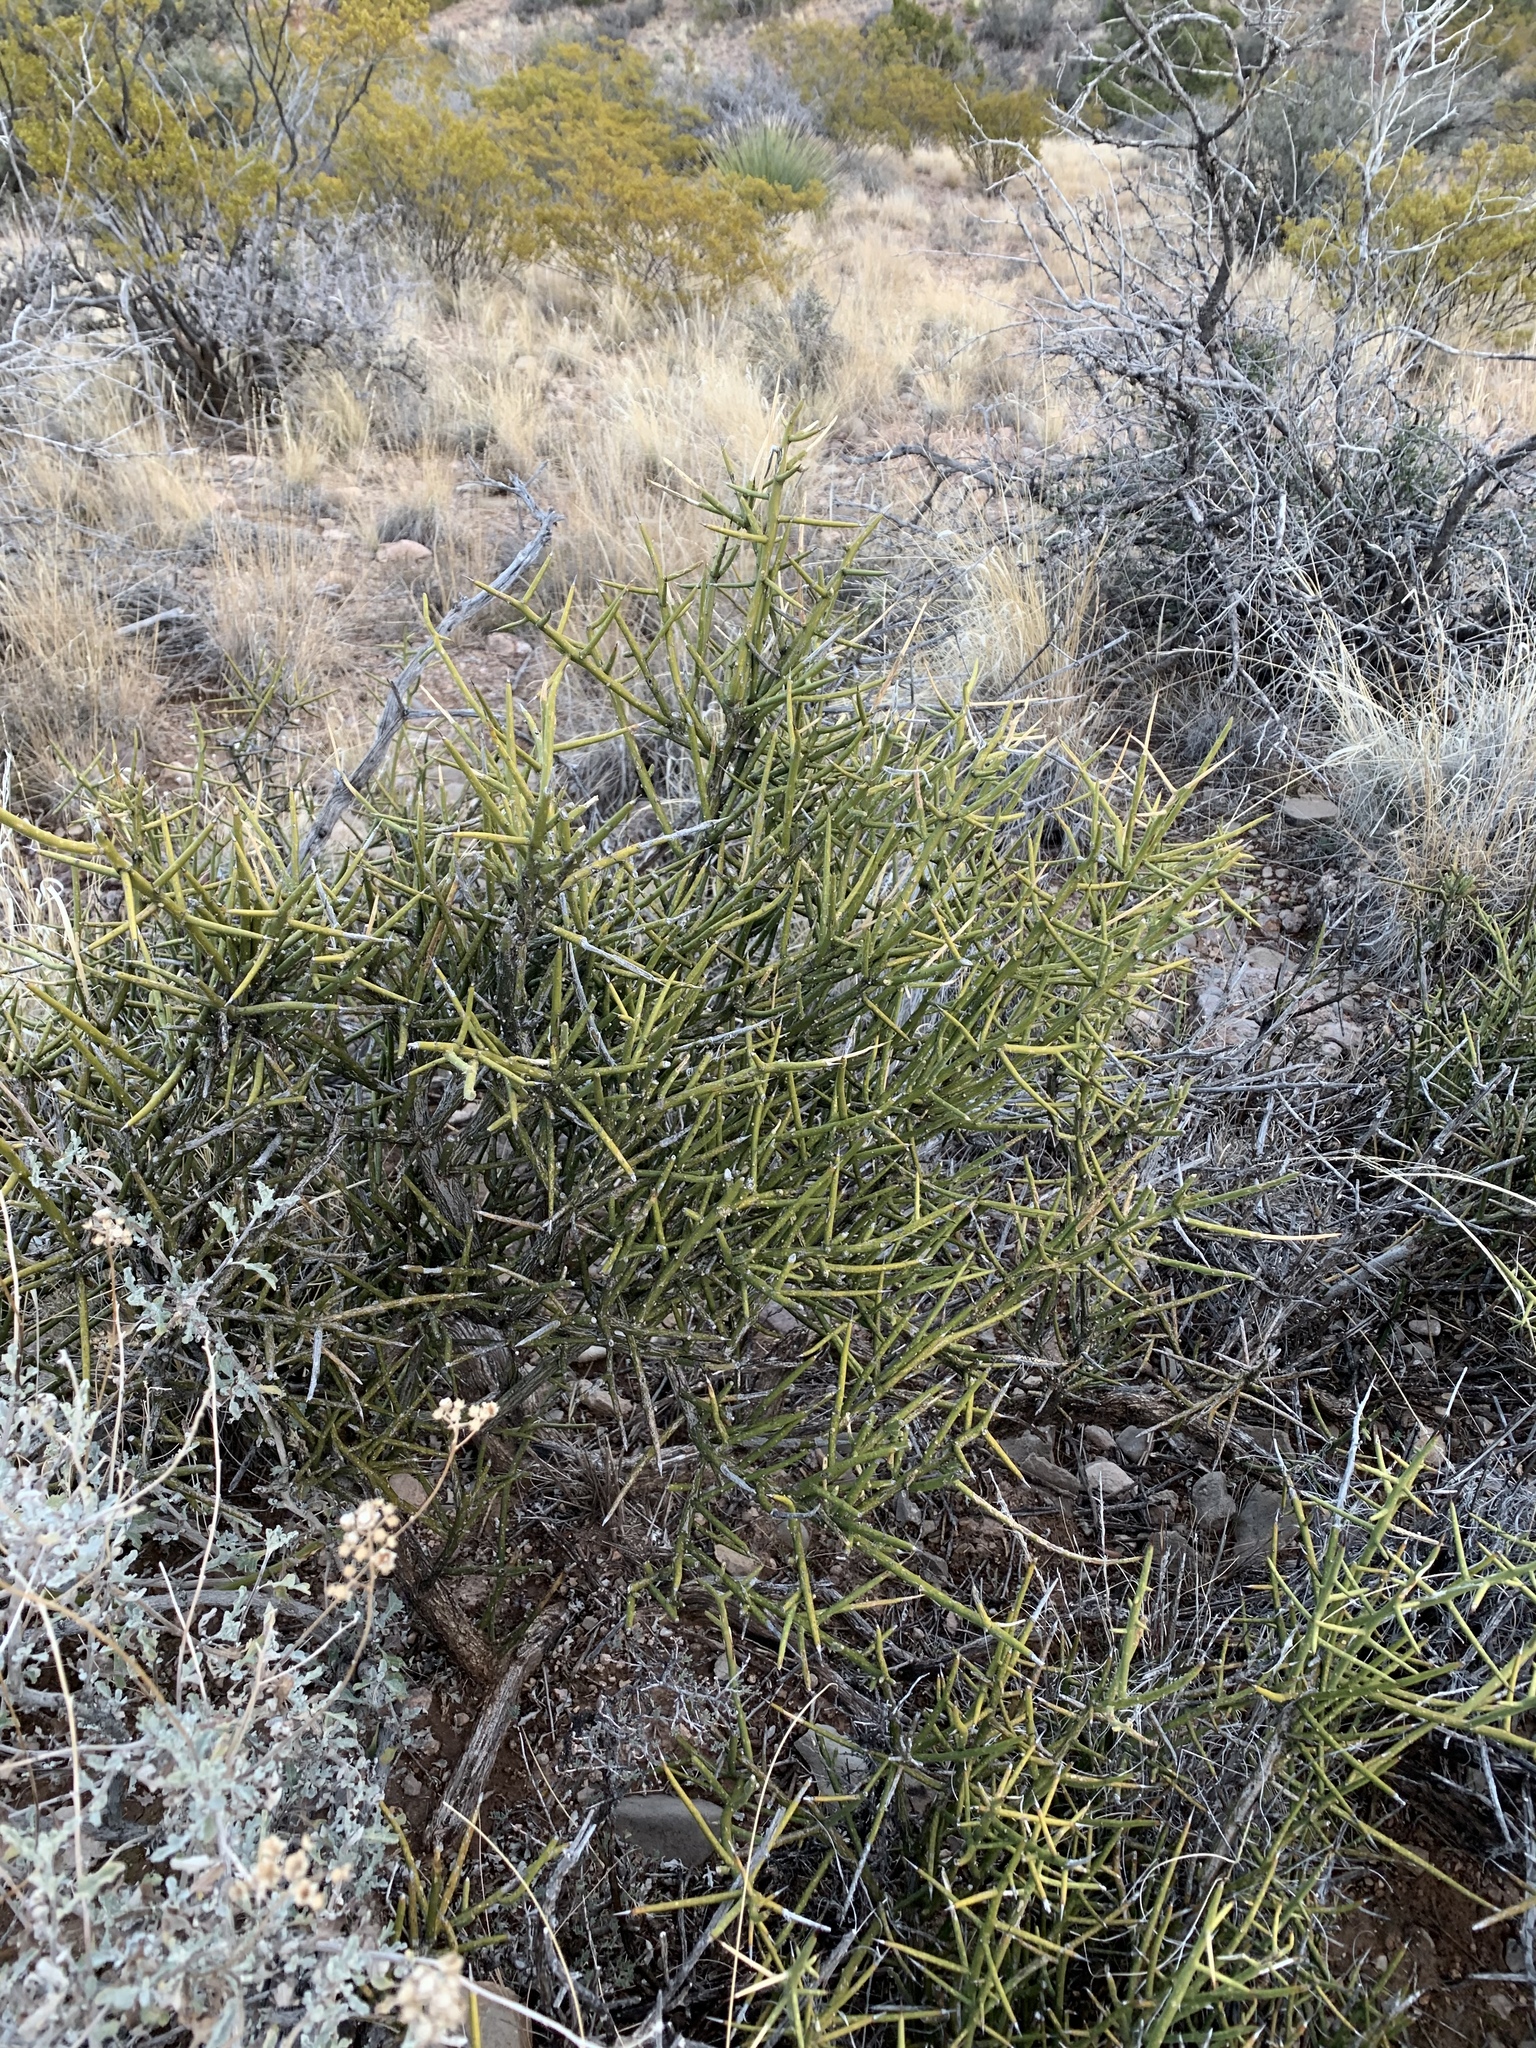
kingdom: Plantae
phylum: Tracheophyta
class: Magnoliopsida
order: Brassicales
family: Koeberliniaceae
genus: Koeberlinia
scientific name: Koeberlinia spinosa
